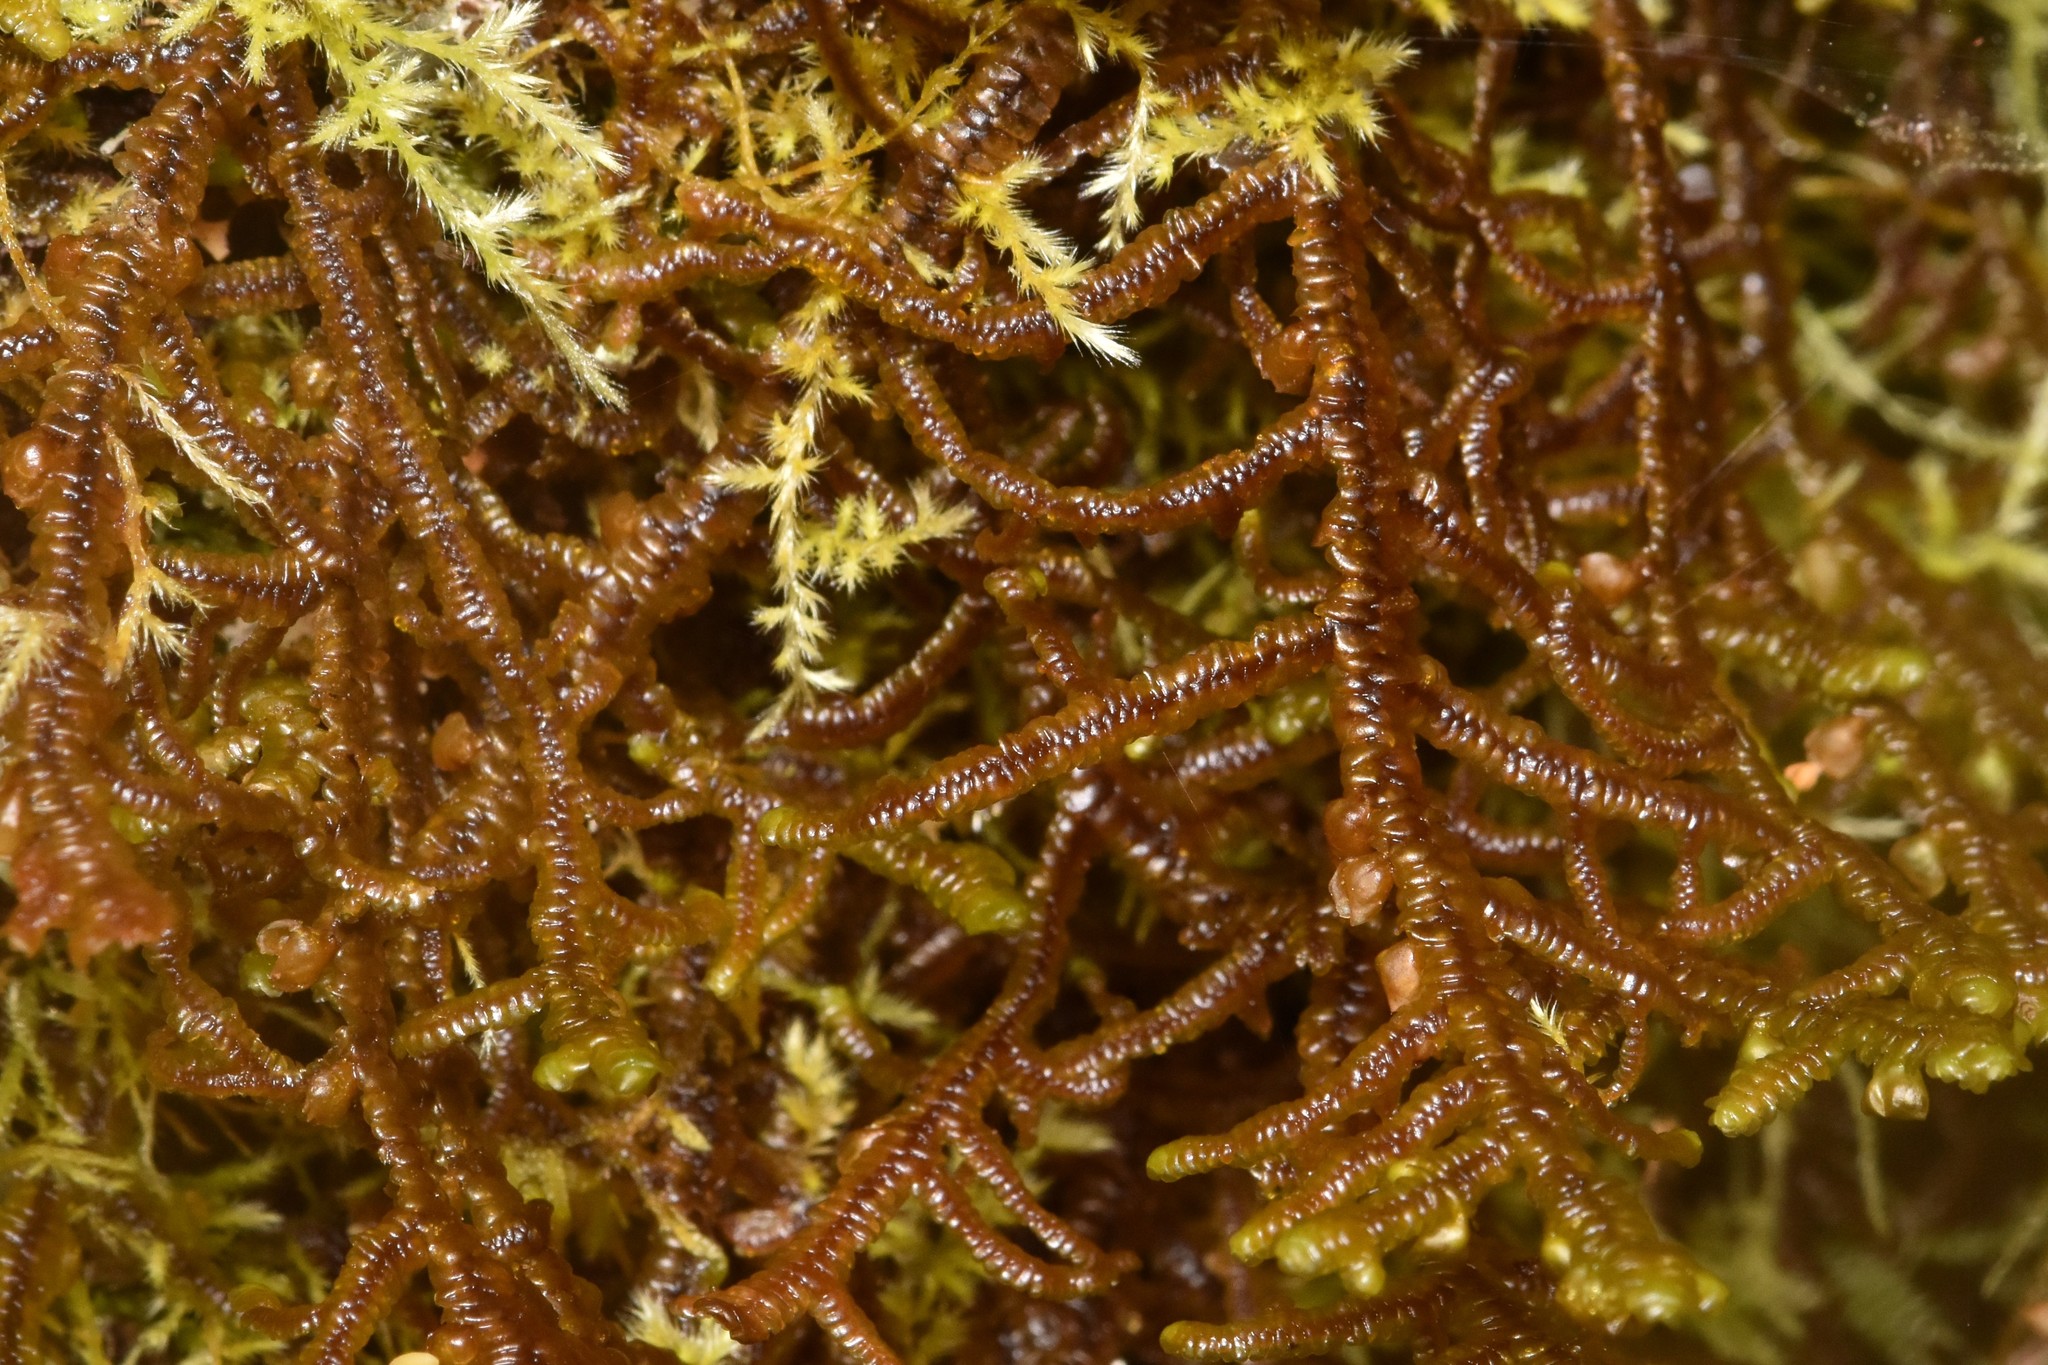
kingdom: Plantae
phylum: Marchantiophyta
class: Jungermanniopsida
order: Porellales
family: Porellaceae
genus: Porella
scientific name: Porella navicularis
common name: Tree ruffle liverwort
